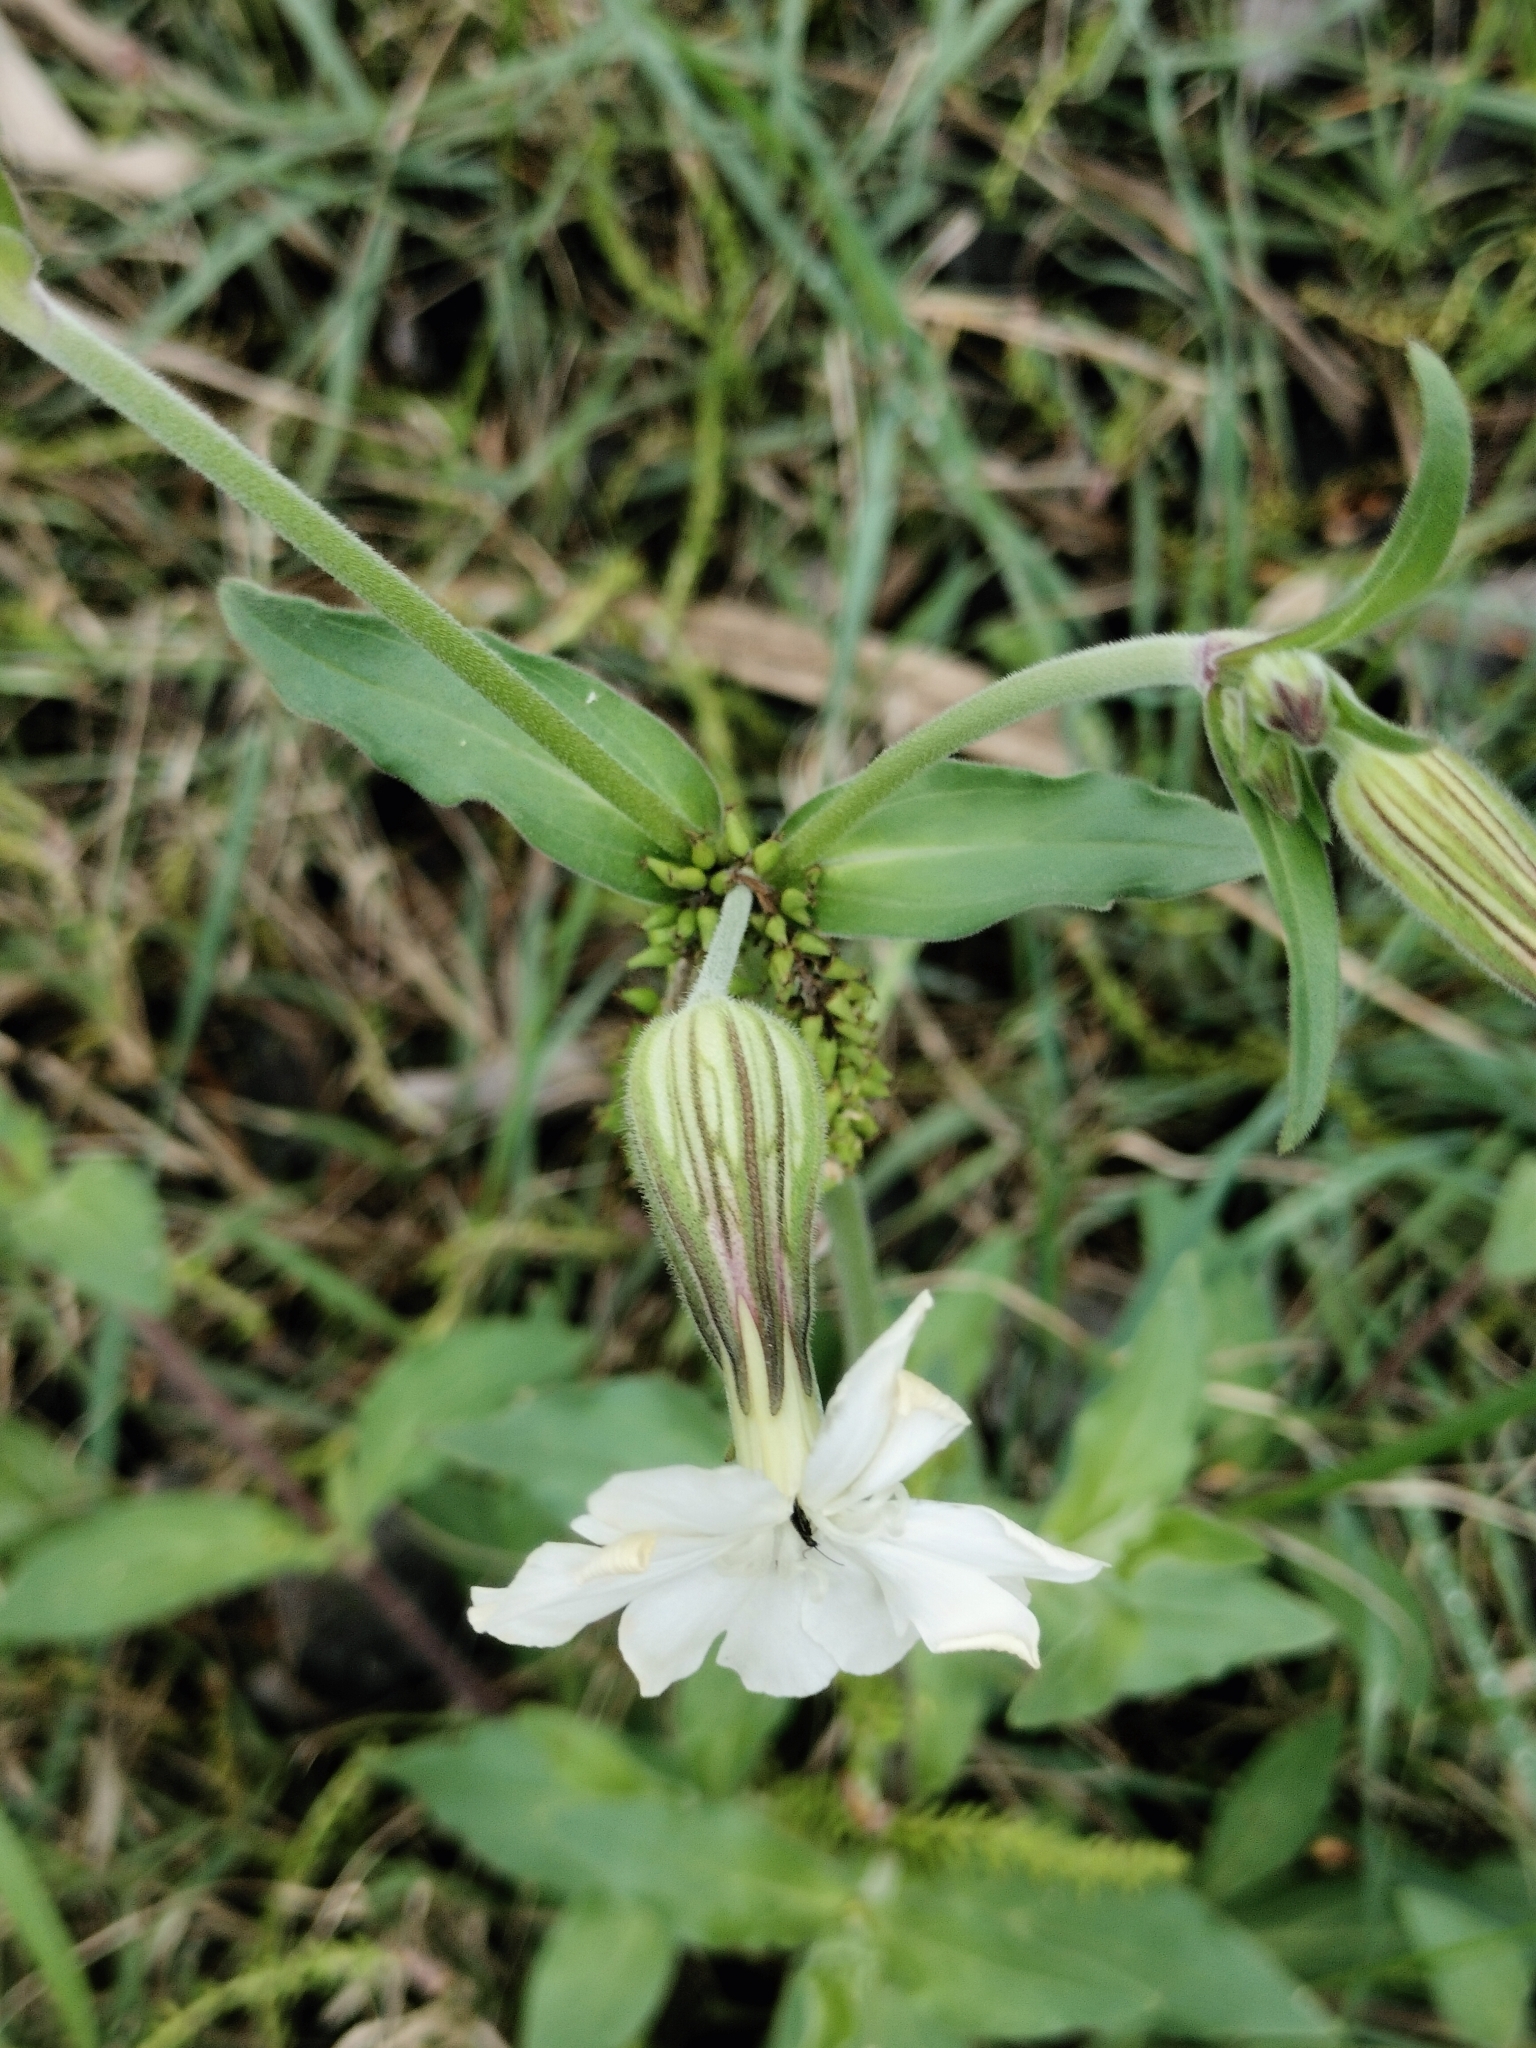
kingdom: Plantae
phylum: Tracheophyta
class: Magnoliopsida
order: Caryophyllales
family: Caryophyllaceae
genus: Silene
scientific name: Silene latifolia
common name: White campion
